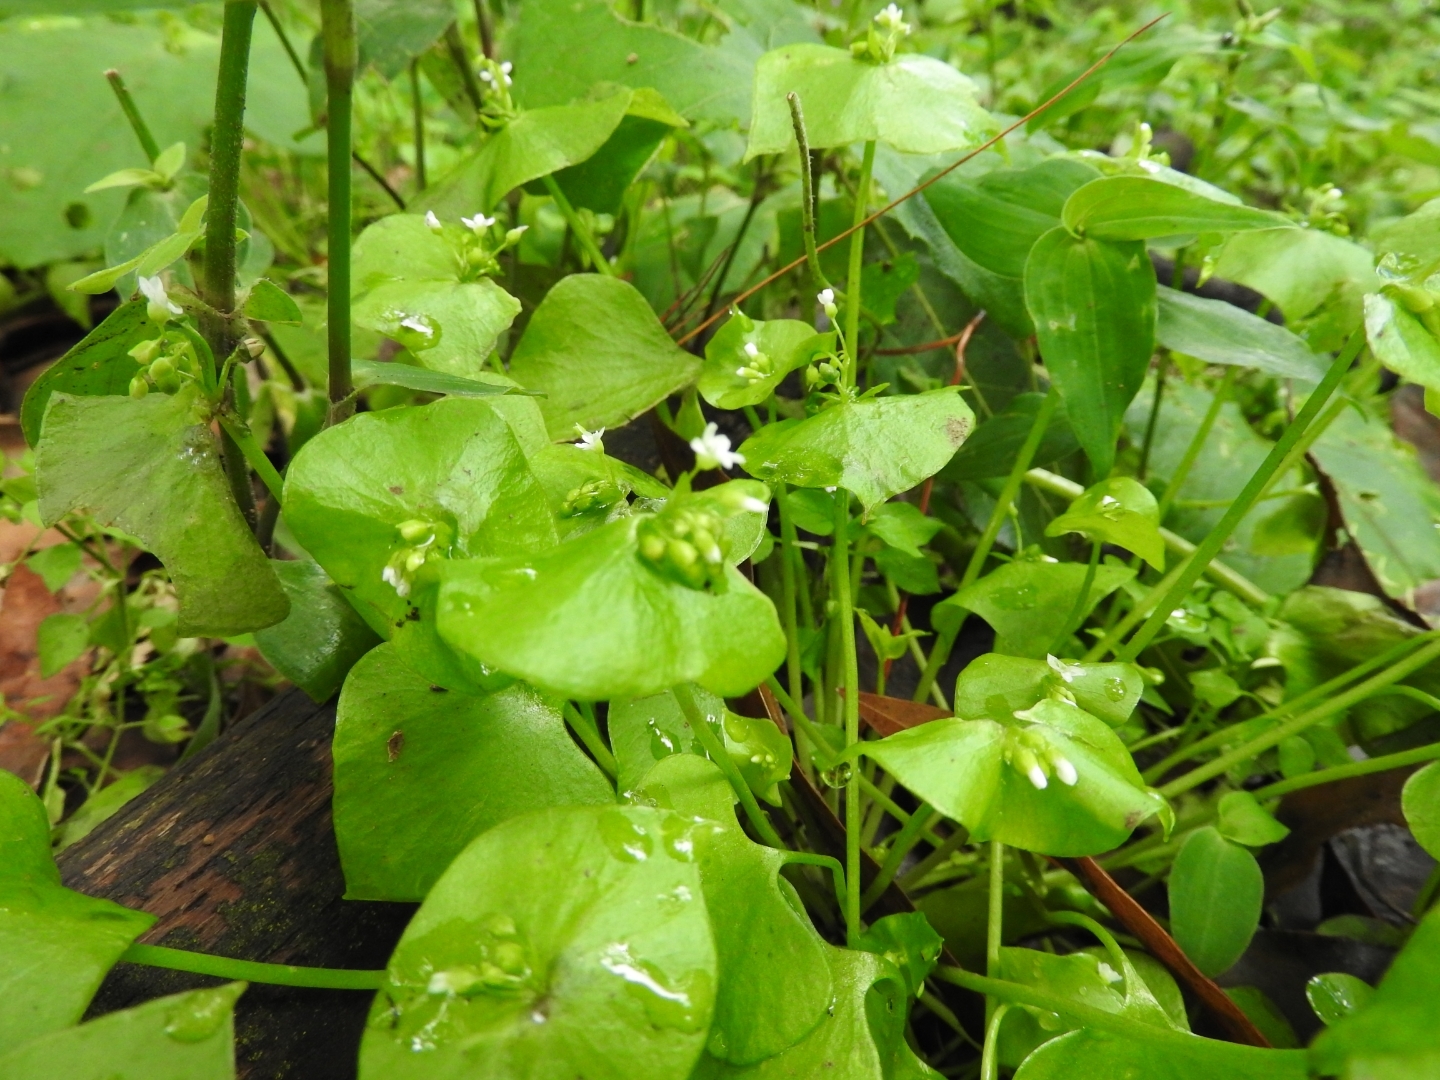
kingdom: Plantae
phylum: Tracheophyta
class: Magnoliopsida
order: Caryophyllales
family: Montiaceae
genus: Claytonia
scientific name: Claytonia perfoliata
